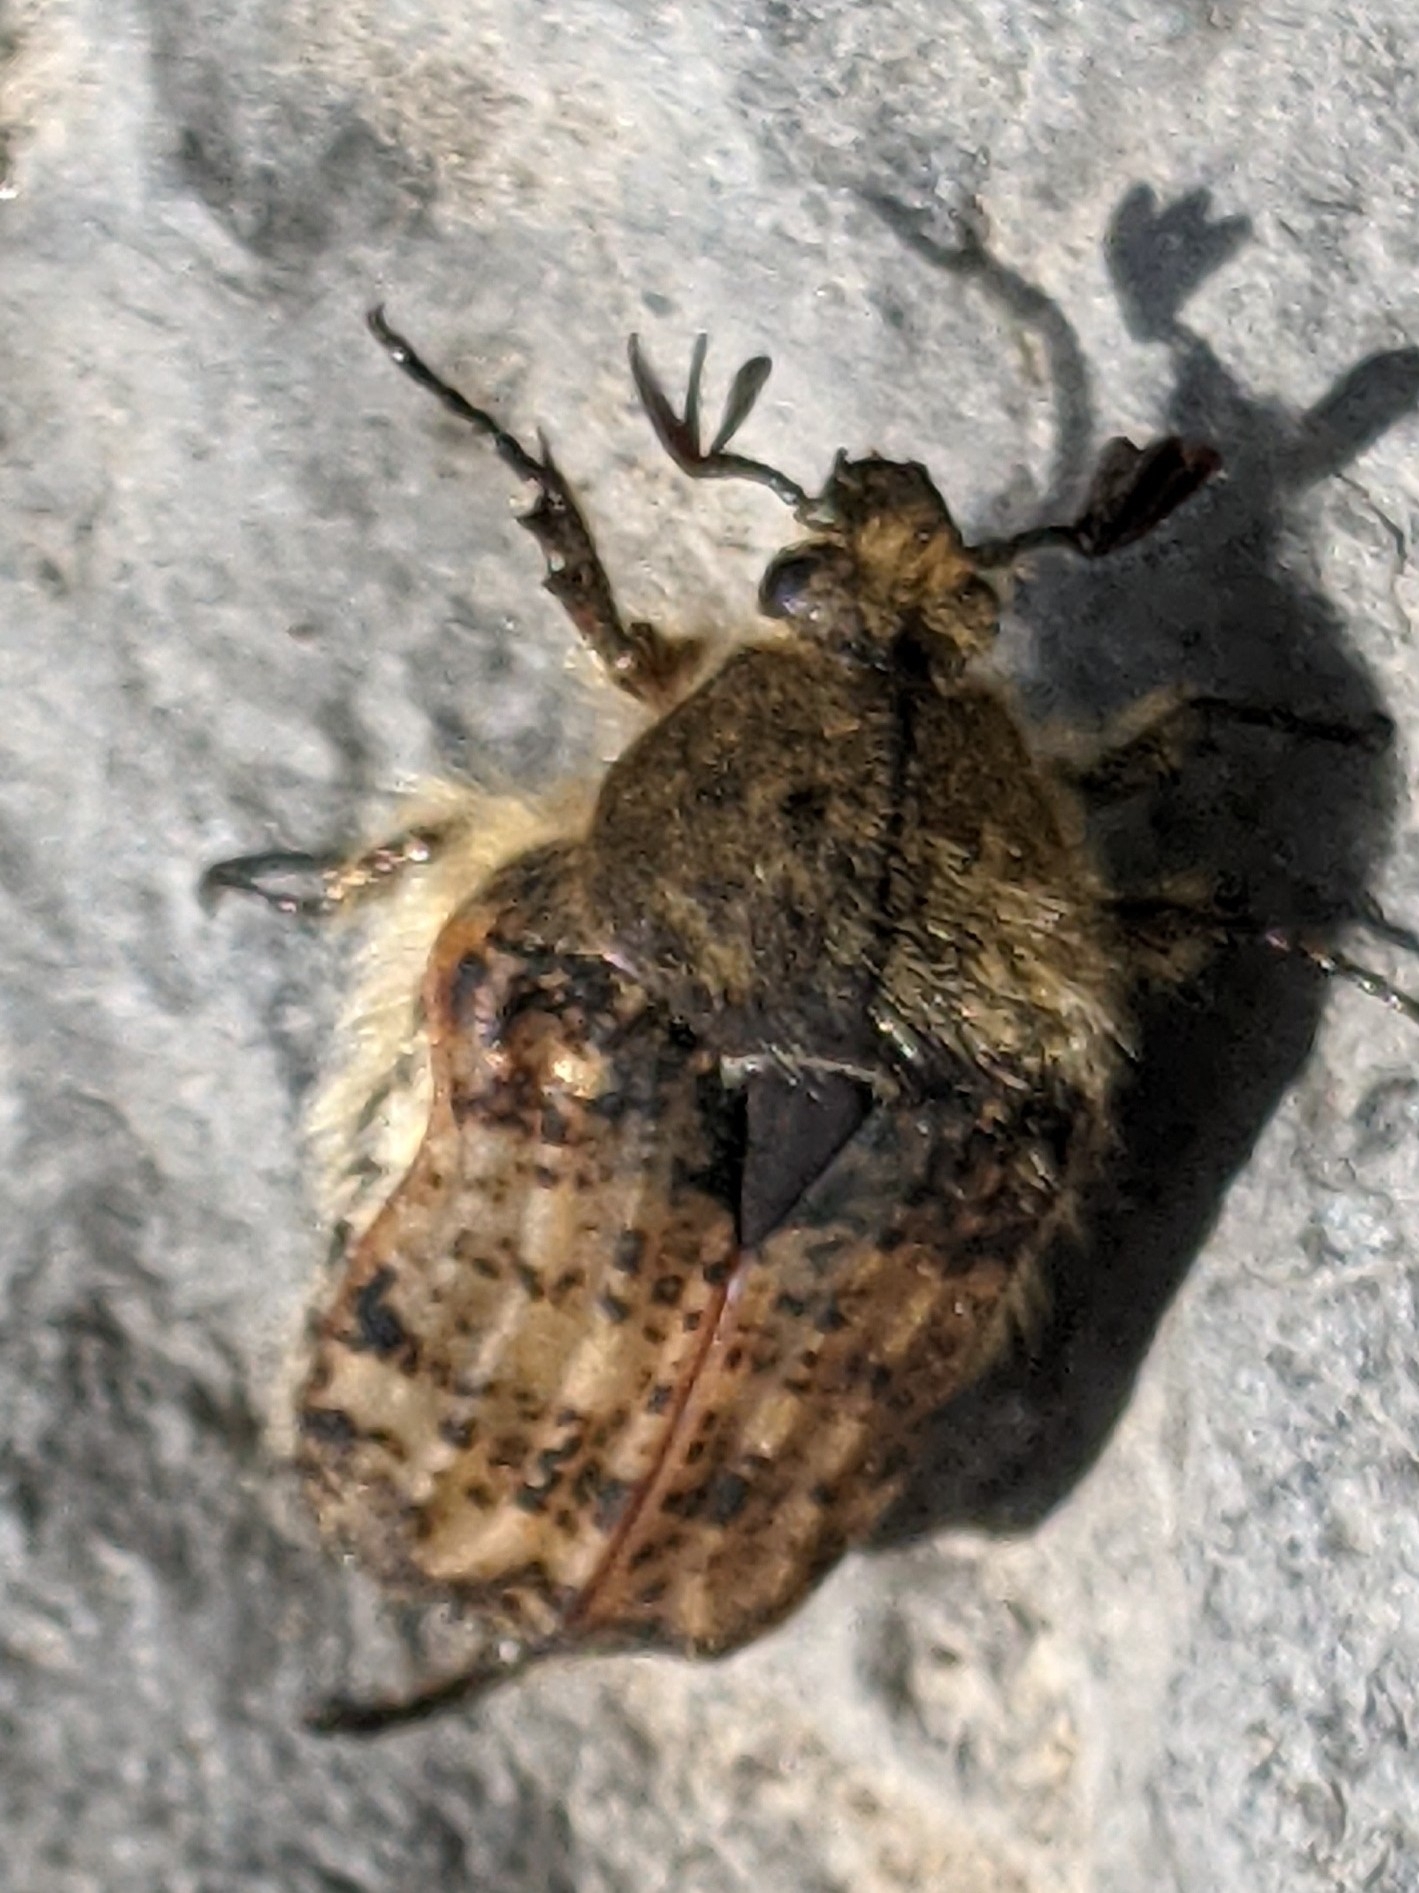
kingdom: Animalia
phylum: Arthropoda
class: Insecta
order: Coleoptera
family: Scarabaeidae
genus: Euphoria
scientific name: Euphoria inda
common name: Bumble flower beetle
